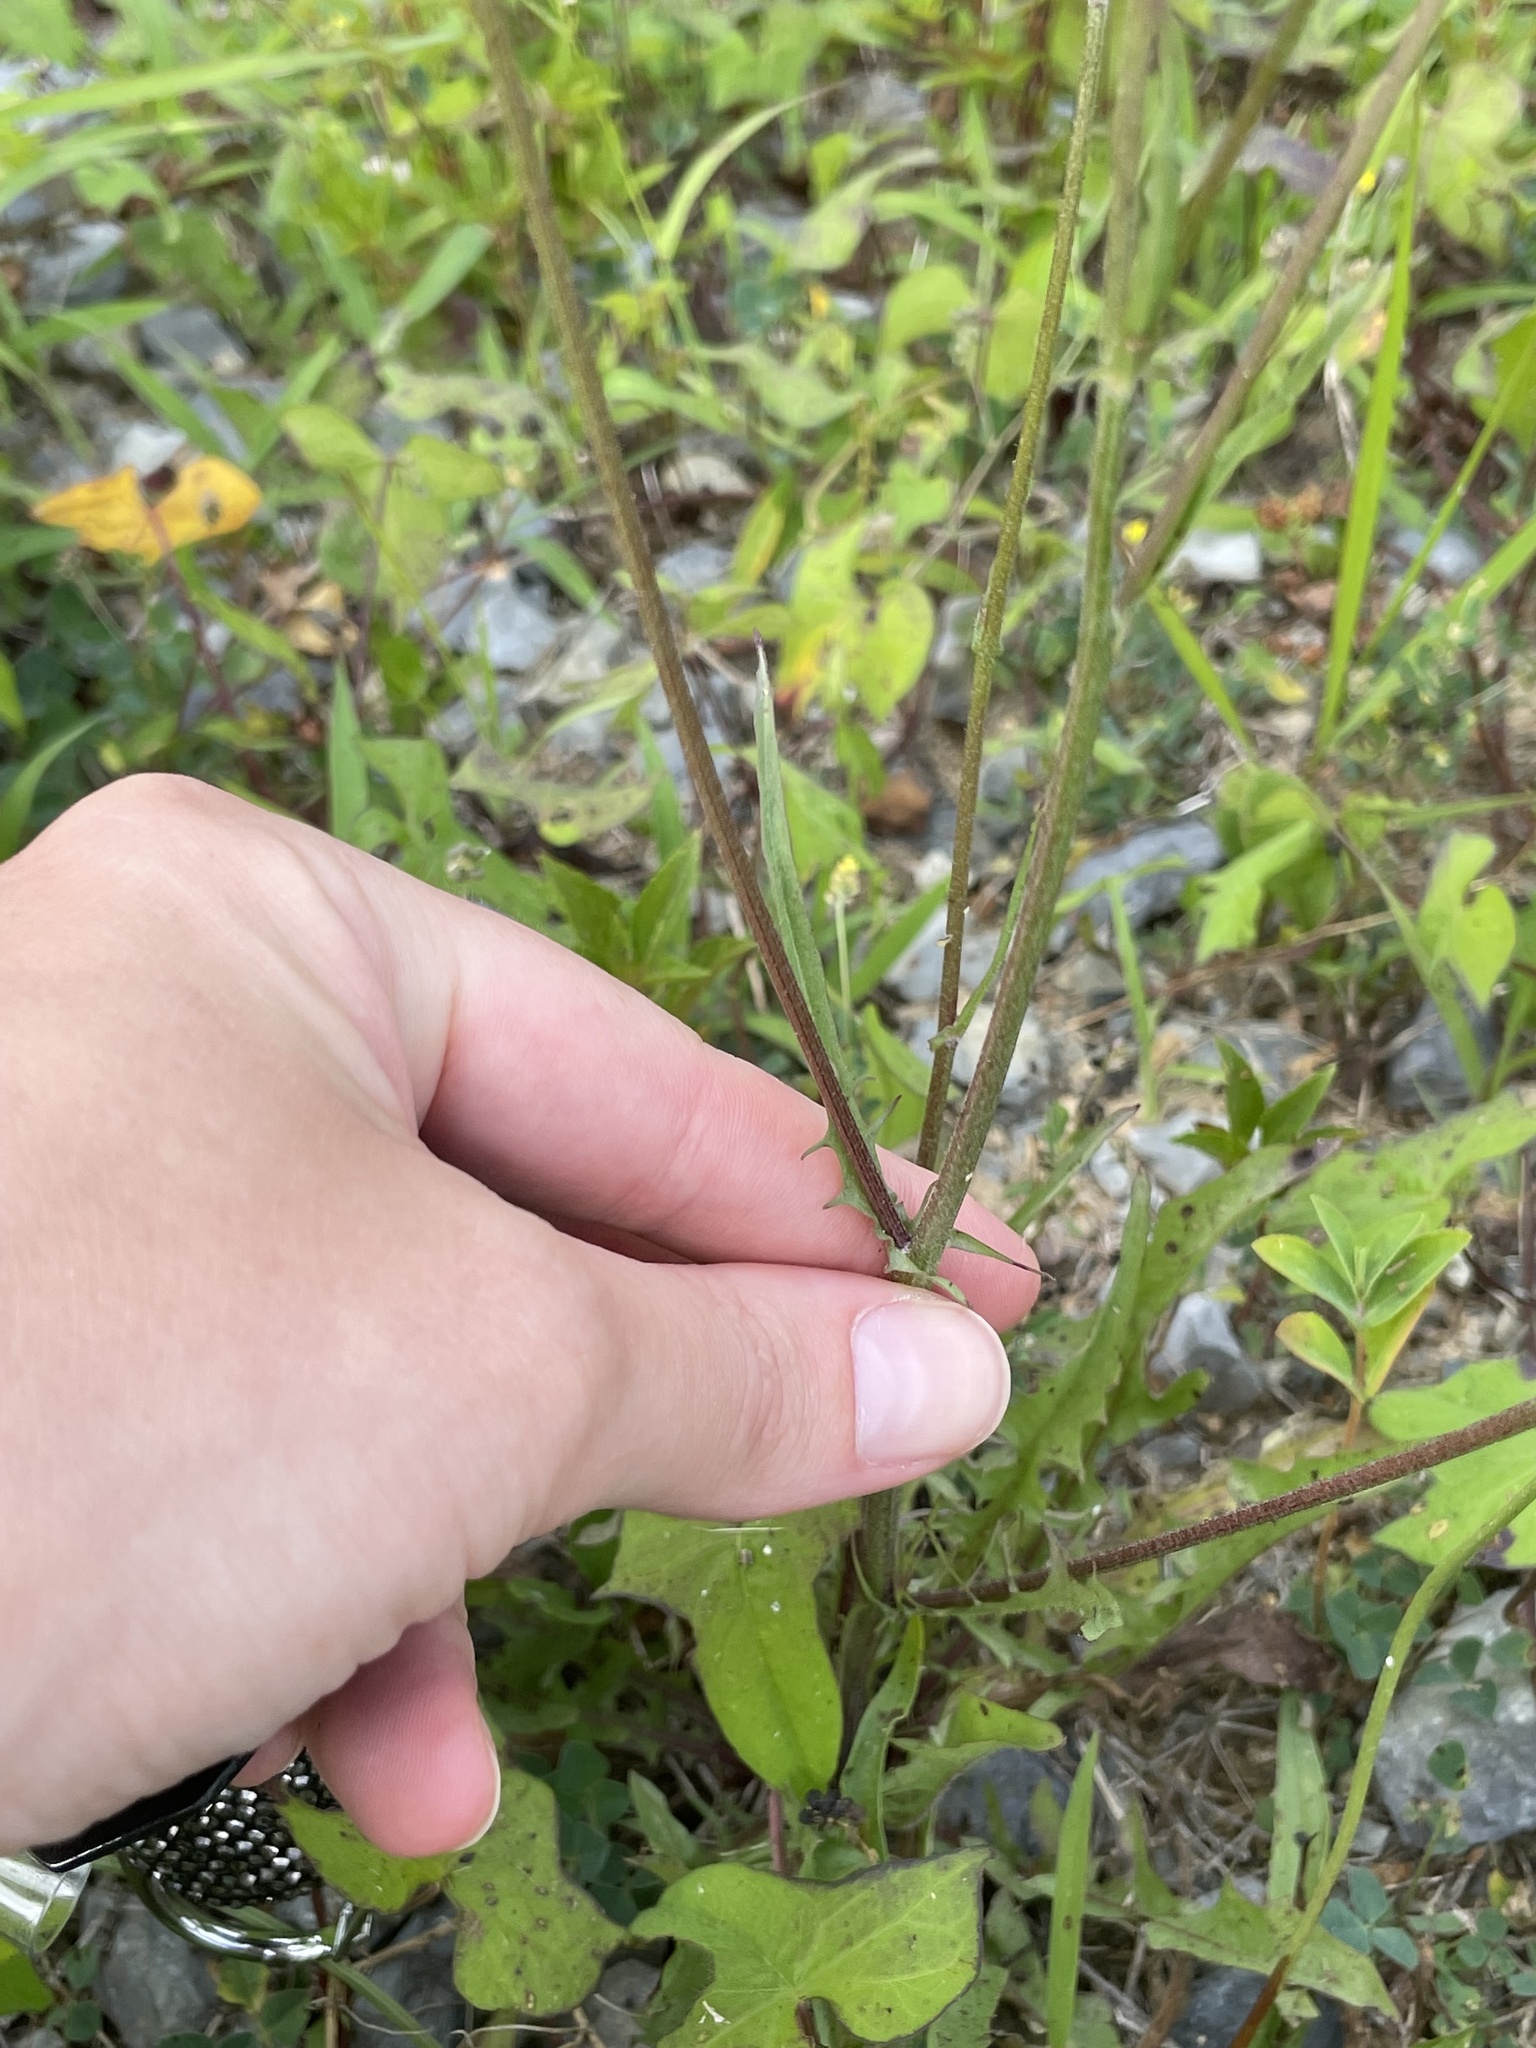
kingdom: Plantae
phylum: Tracheophyta
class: Magnoliopsida
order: Asterales
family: Asteraceae
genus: Crepis
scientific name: Crepis capillaris
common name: Smooth hawksbeard
